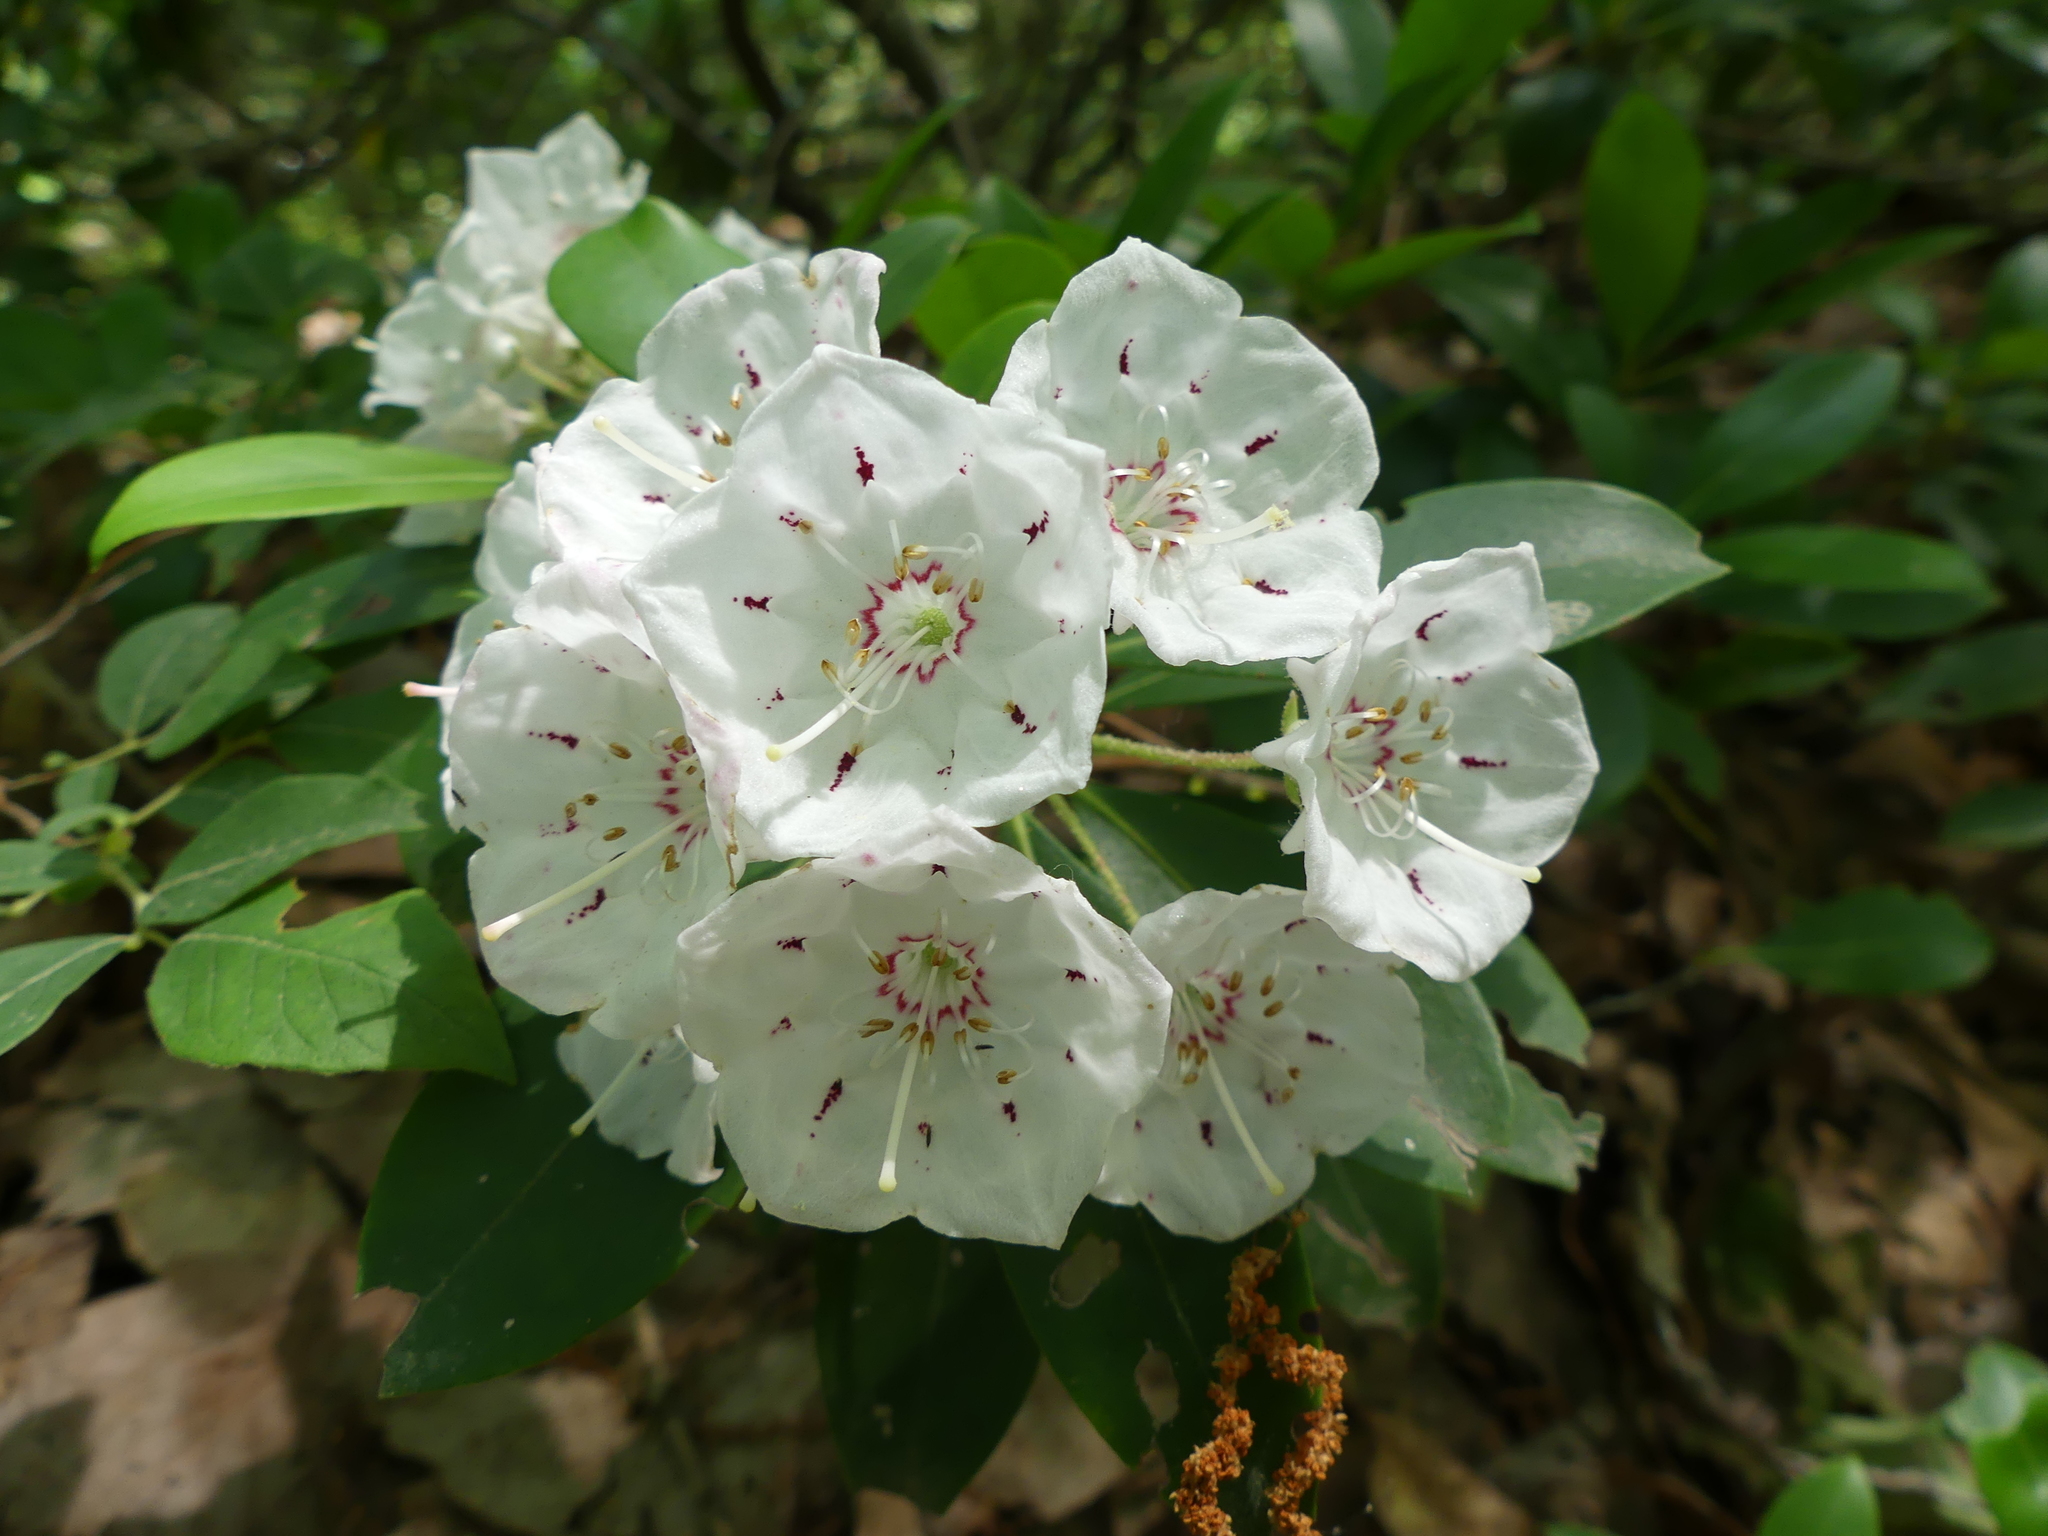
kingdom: Plantae
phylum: Tracheophyta
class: Magnoliopsida
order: Ericales
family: Ericaceae
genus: Kalmia
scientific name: Kalmia latifolia
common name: Mountain-laurel
